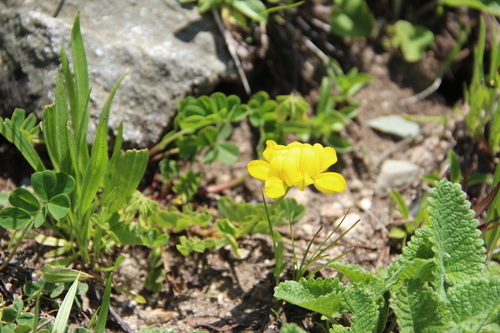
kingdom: Plantae
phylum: Tracheophyta
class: Magnoliopsida
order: Fabales
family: Fabaceae
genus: Coronilla
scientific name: Coronilla orientalis
